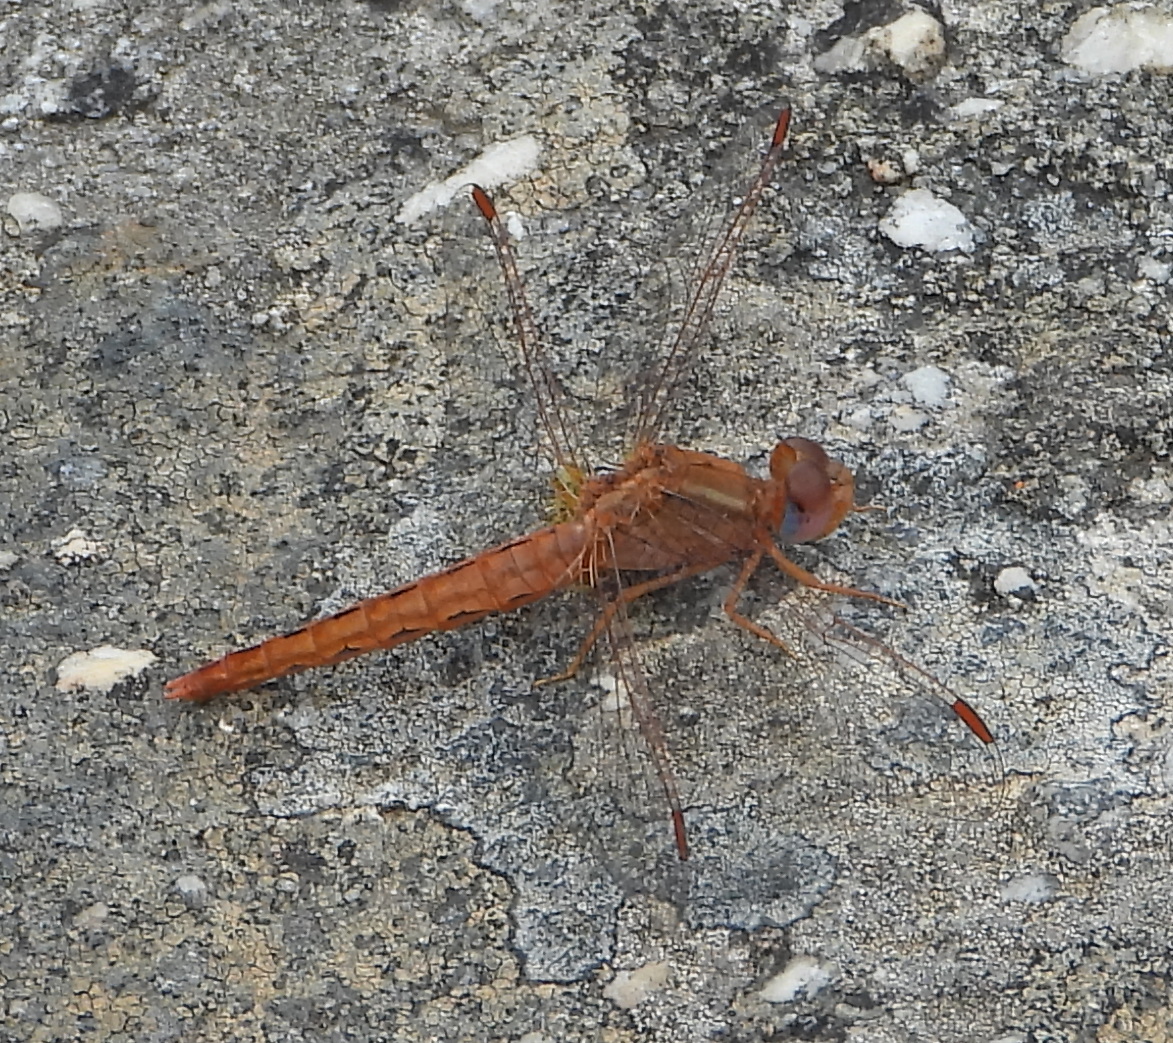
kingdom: Animalia
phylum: Arthropoda
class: Insecta
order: Odonata
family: Libellulidae
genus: Crocothemis
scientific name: Crocothemis sanguinolenta
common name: Little scarlet
